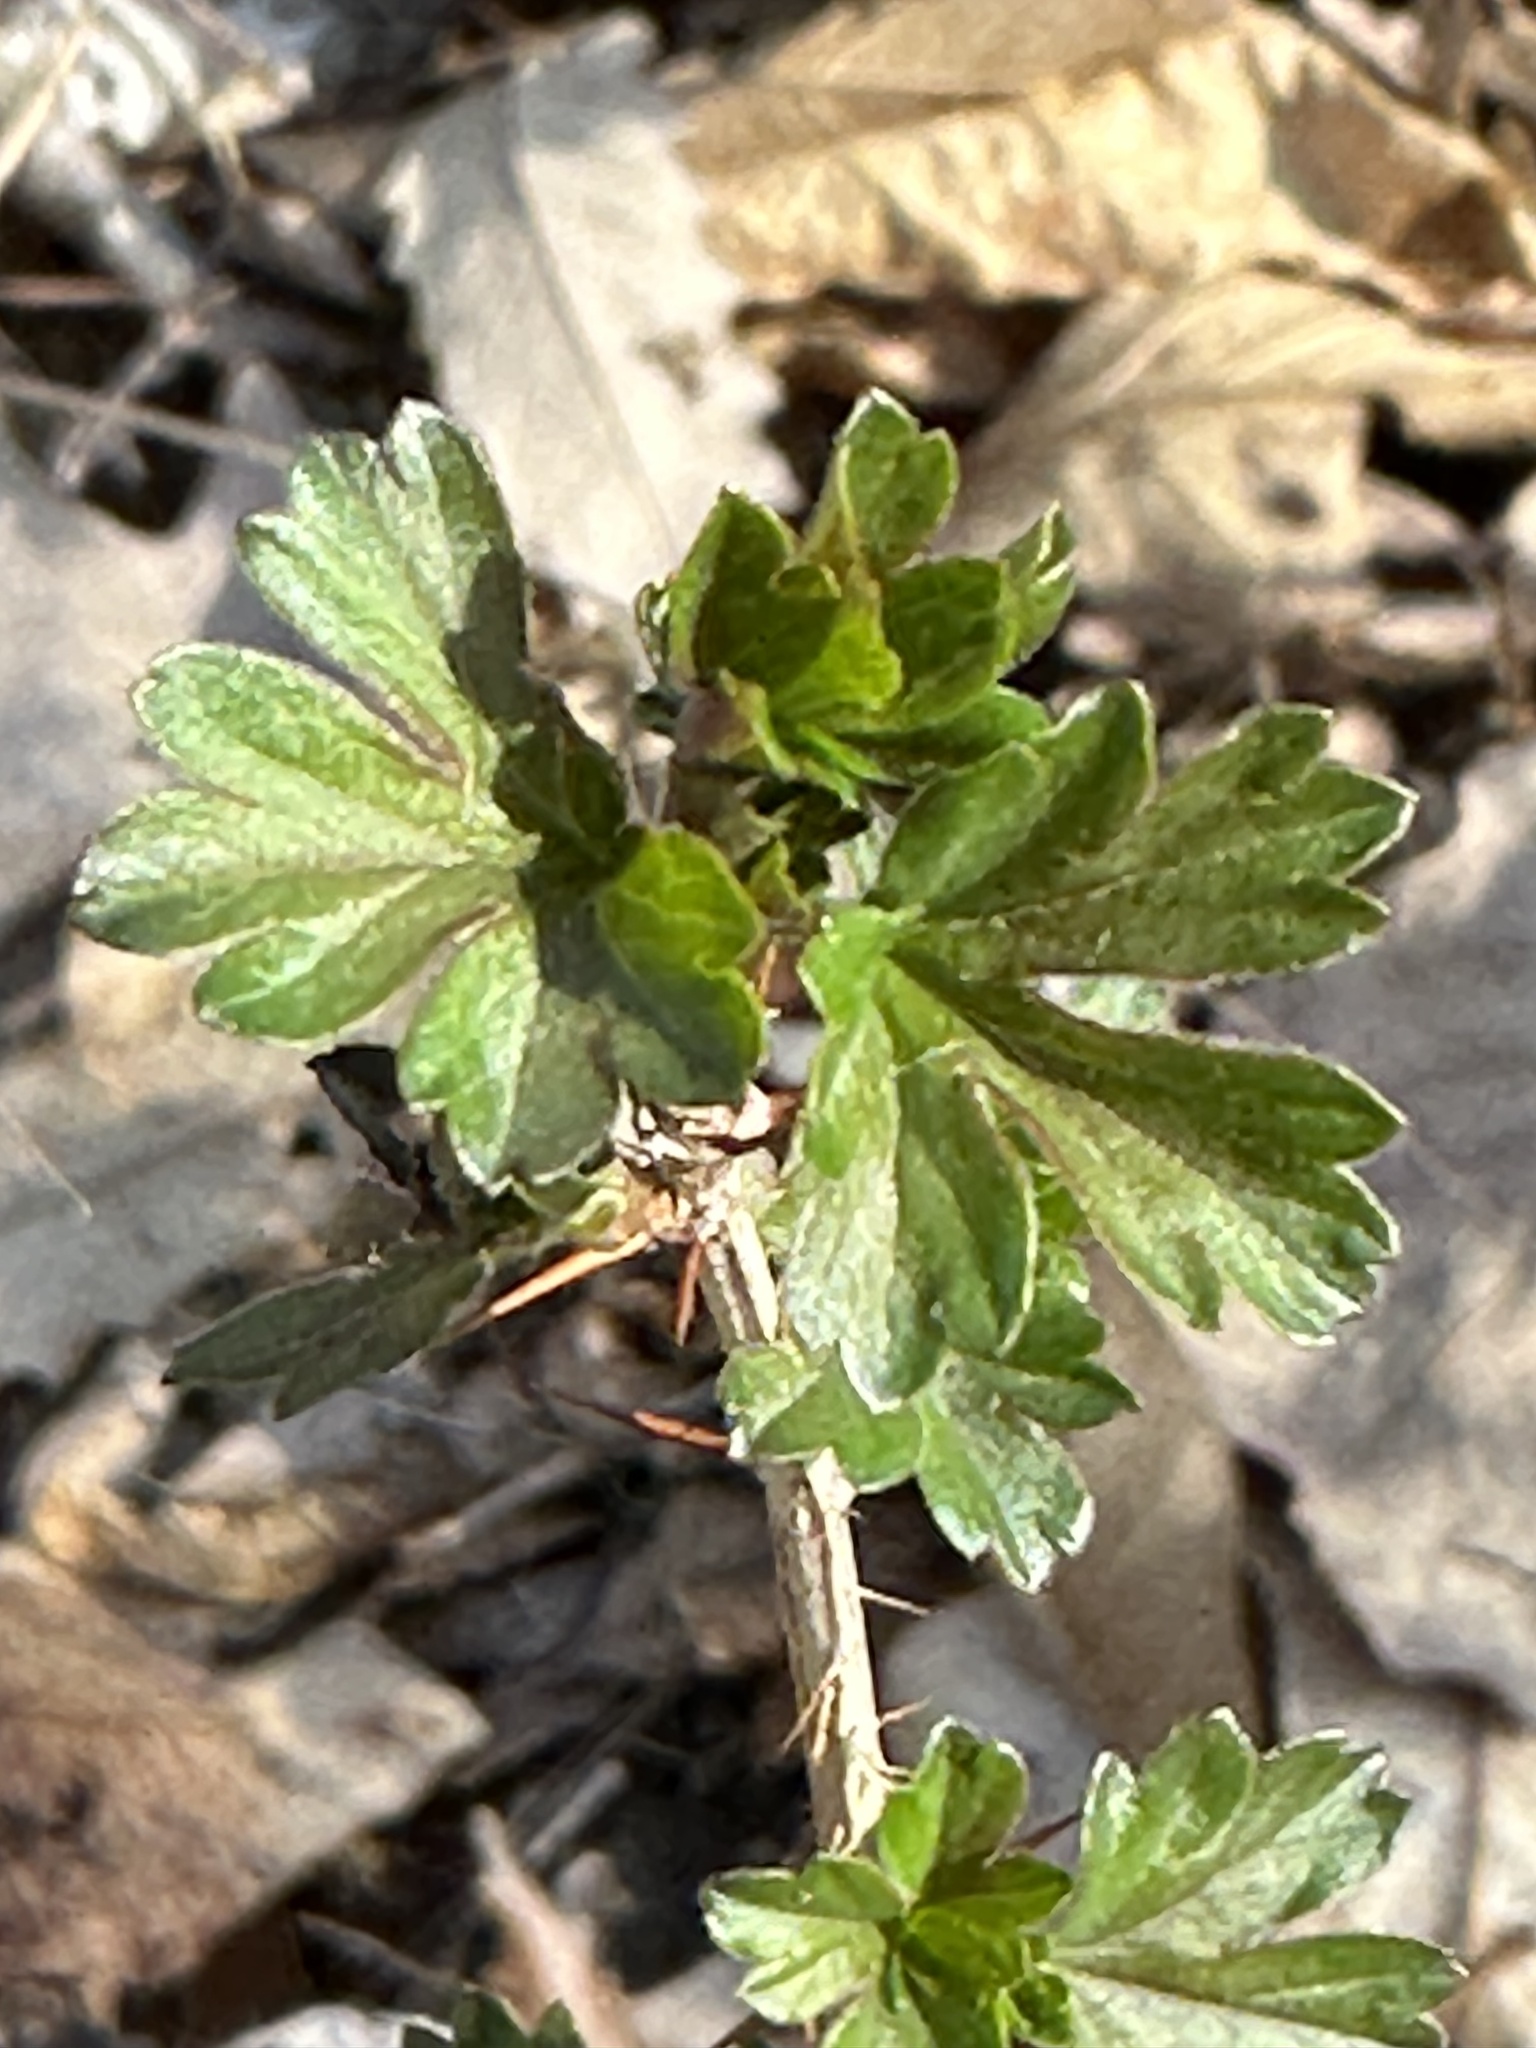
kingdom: Plantae
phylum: Tracheophyta
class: Magnoliopsida
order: Saxifragales
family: Grossulariaceae
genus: Ribes
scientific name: Ribes missouriense
